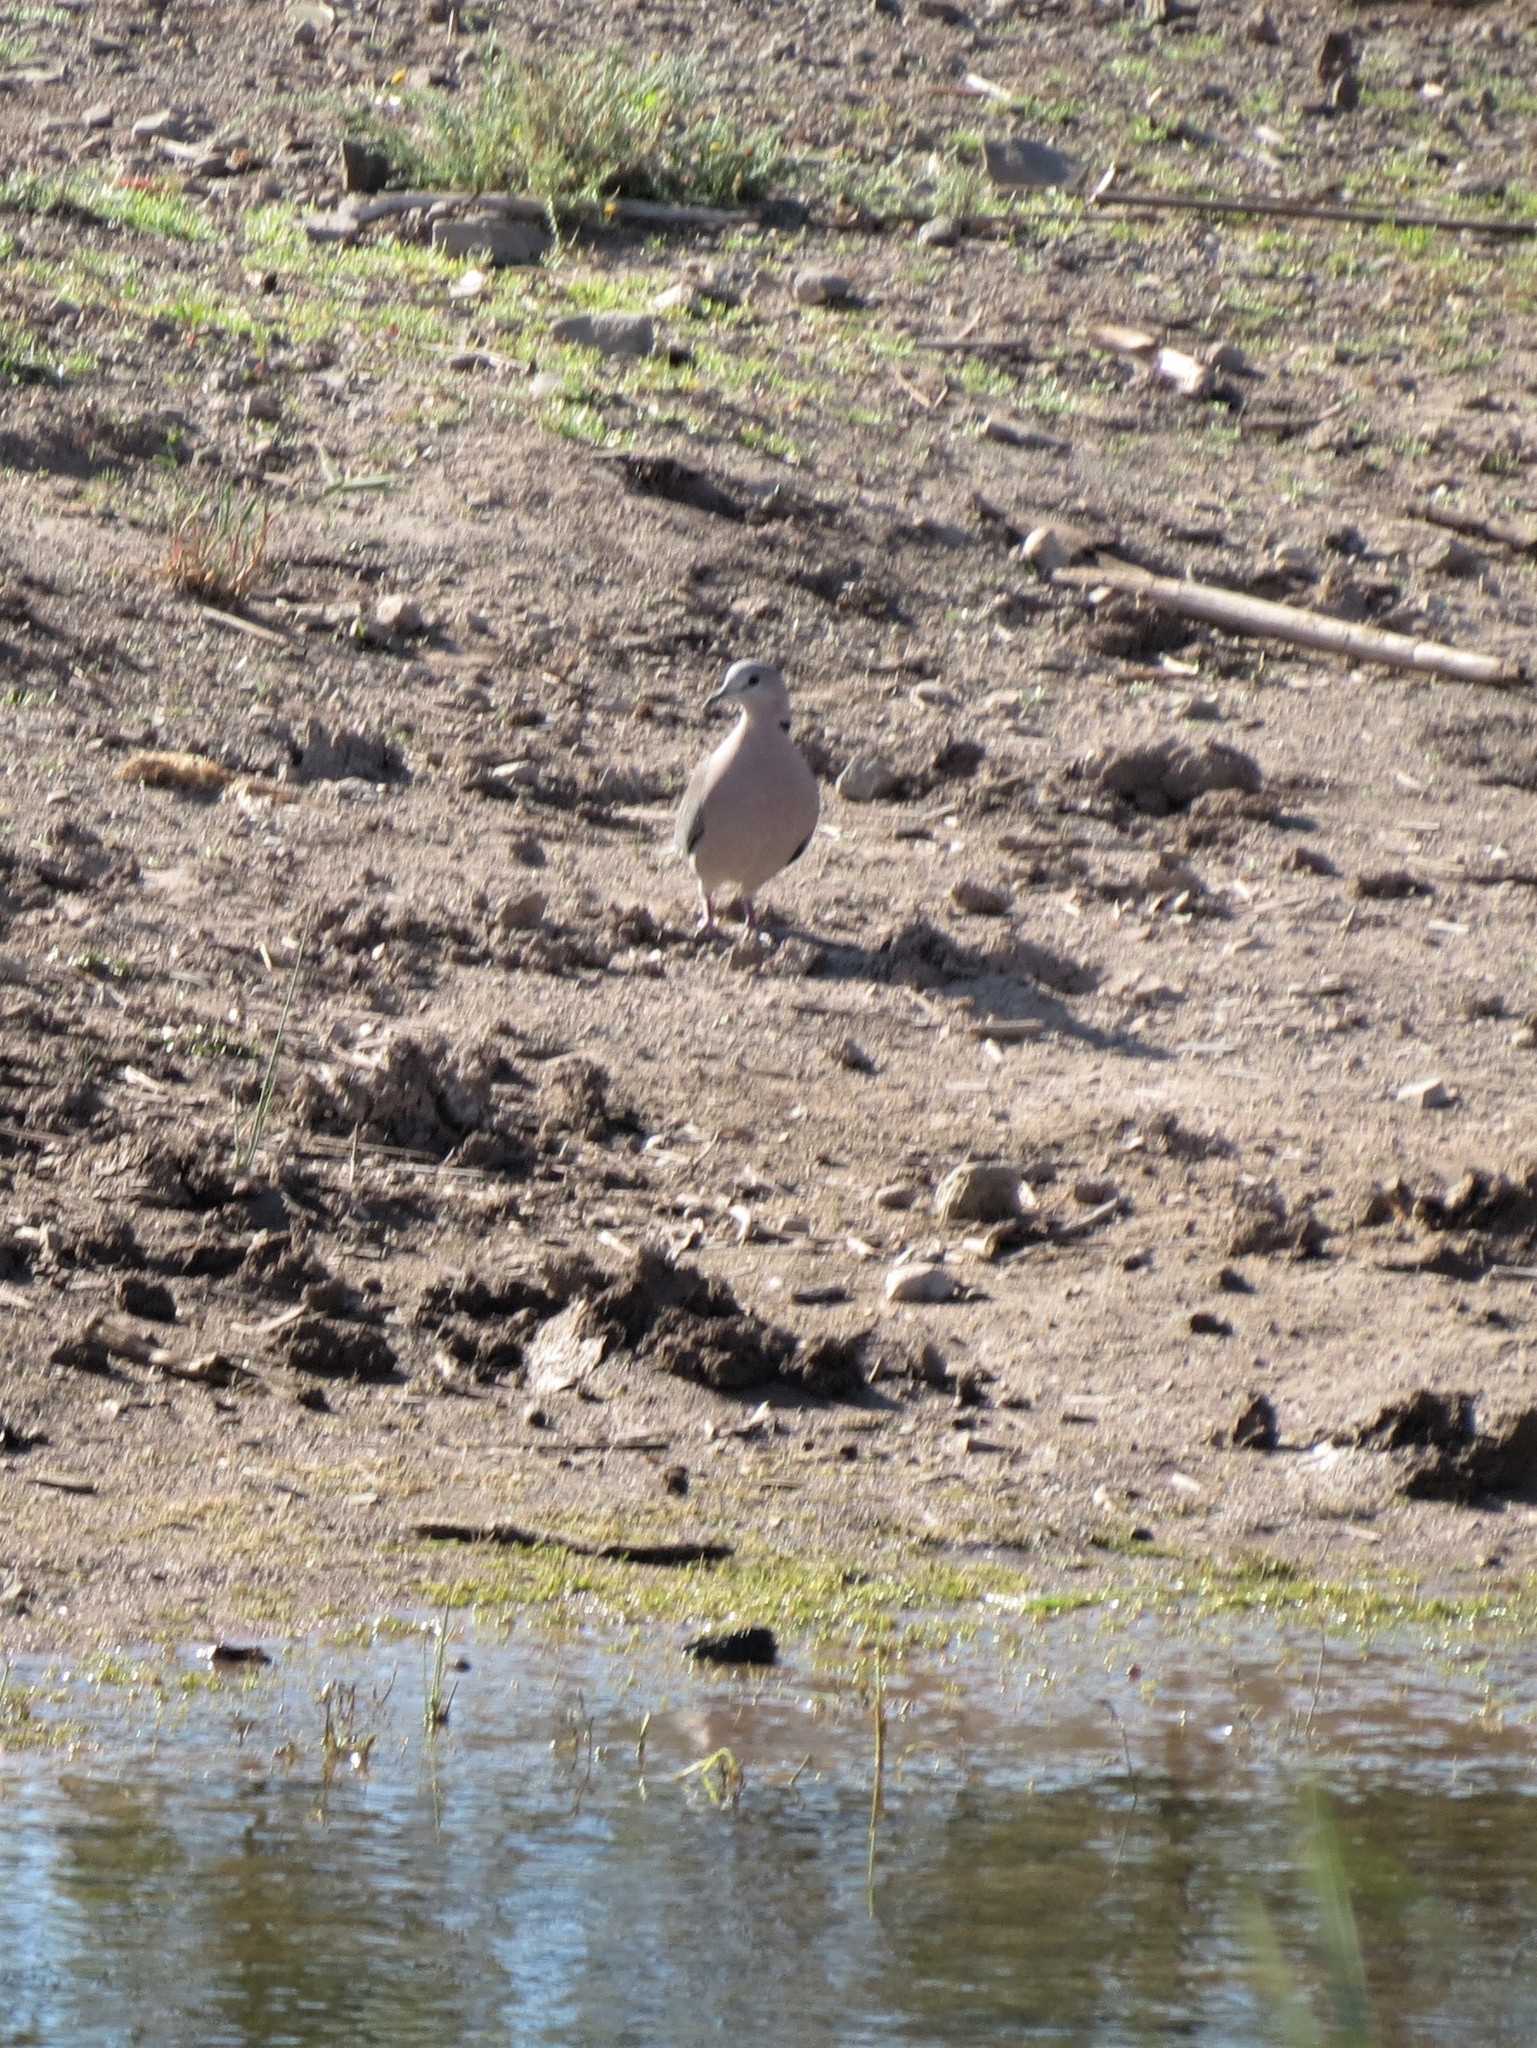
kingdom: Animalia
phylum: Chordata
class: Aves
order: Columbiformes
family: Columbidae
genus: Streptopelia
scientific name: Streptopelia capicola
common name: Ring-necked dove
